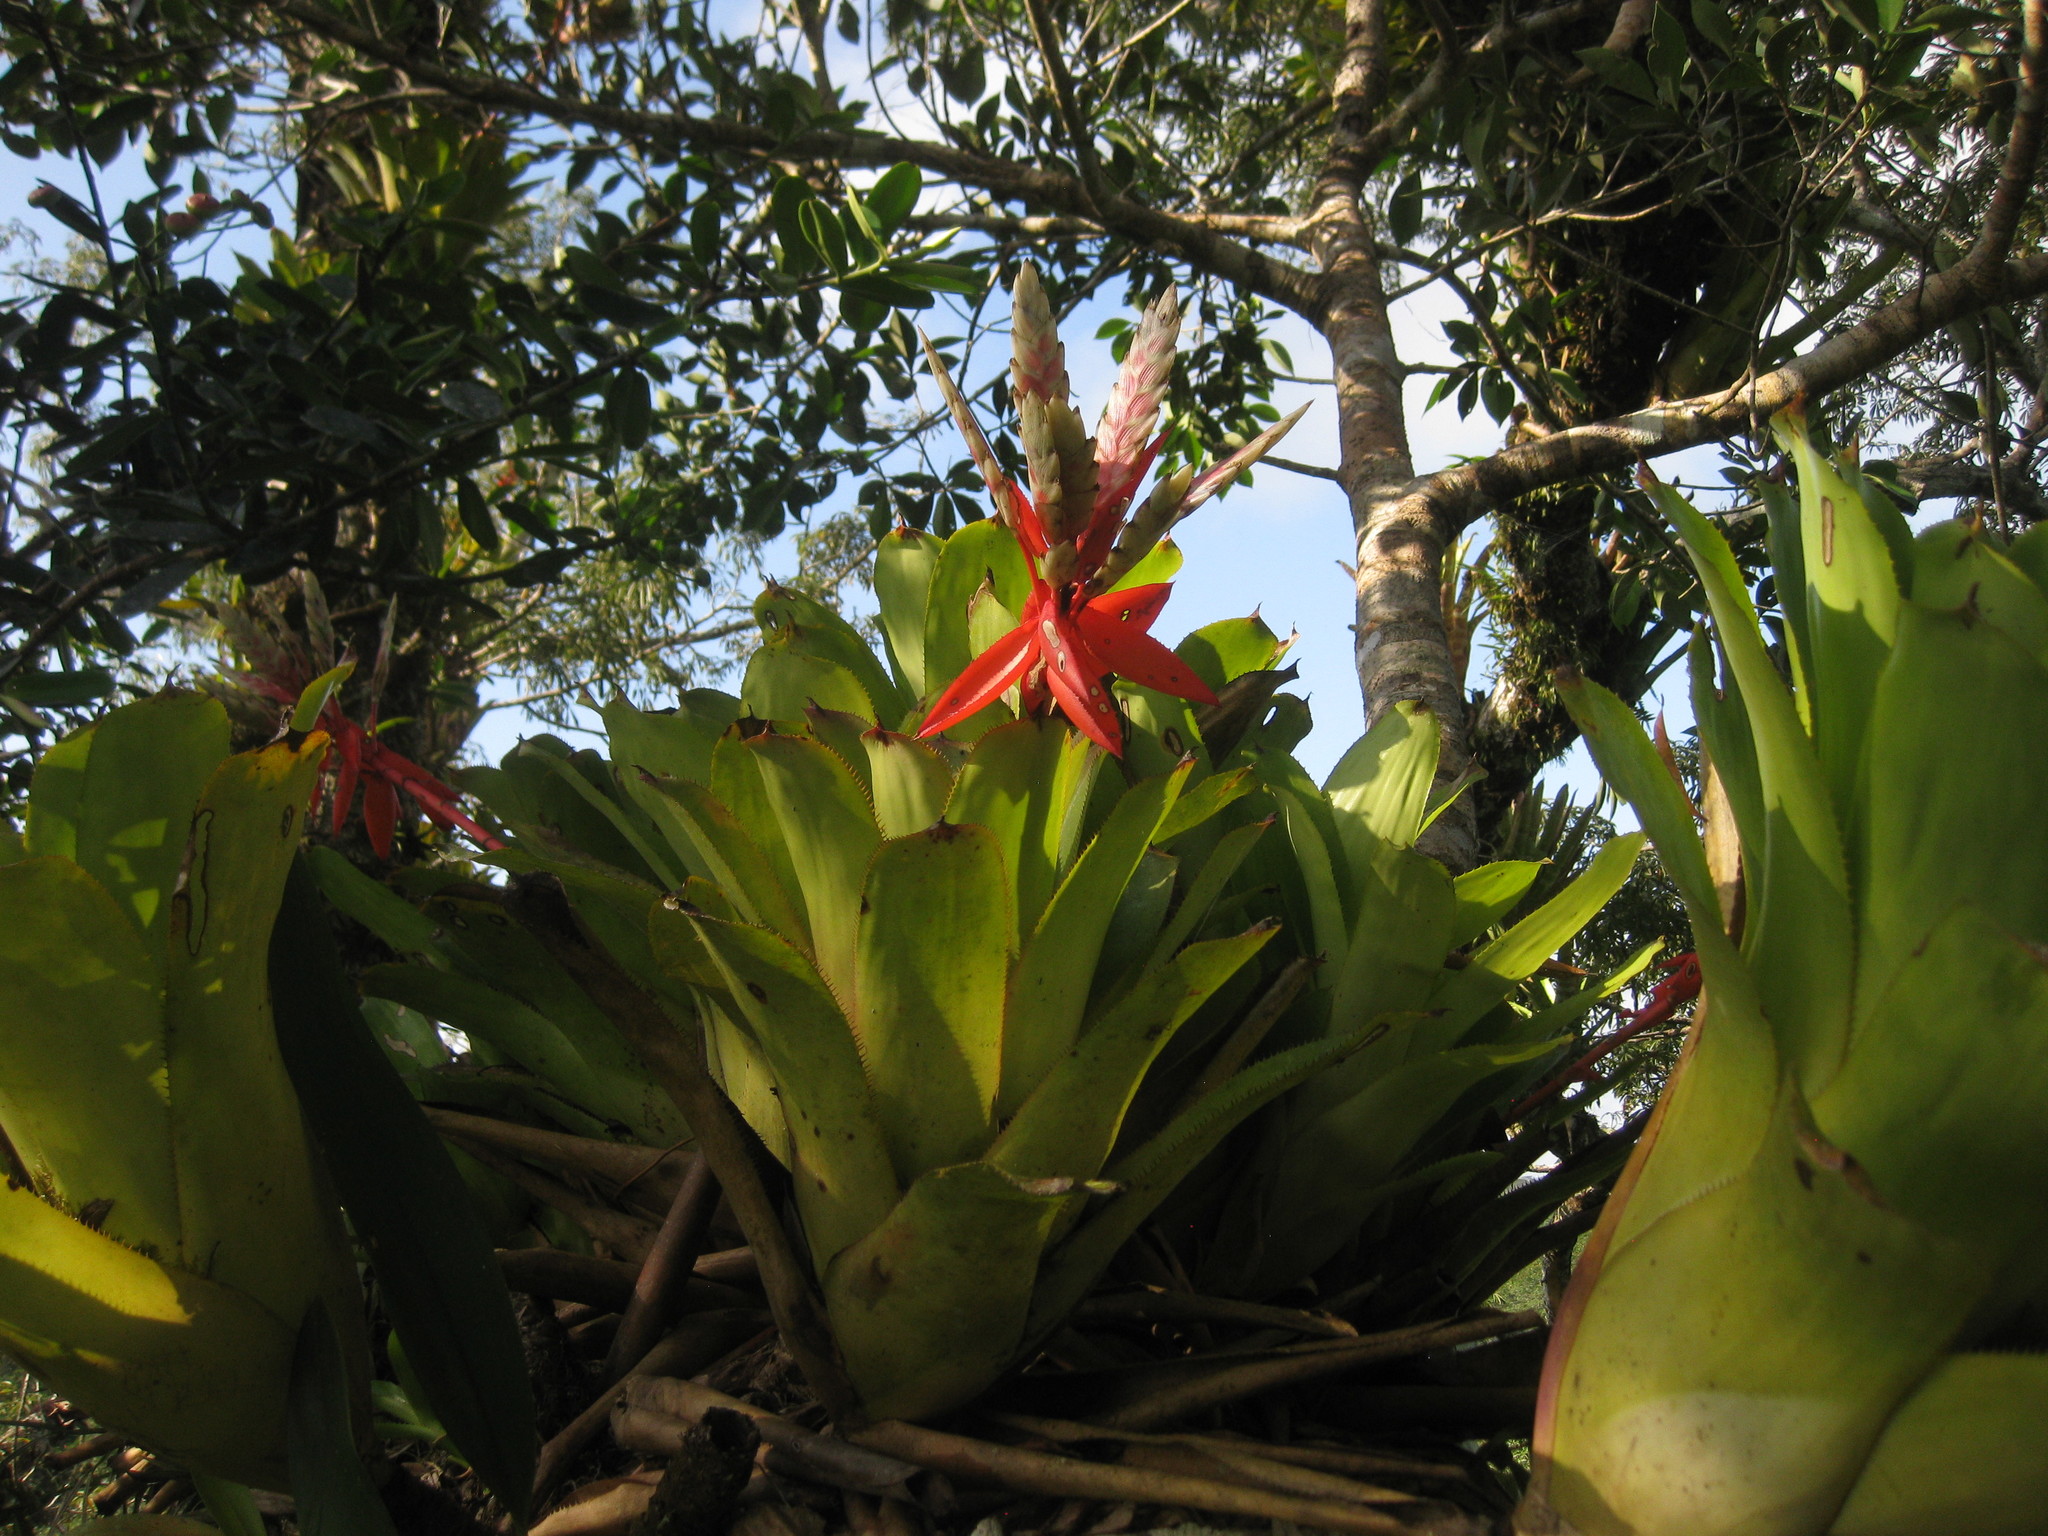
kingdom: Plantae
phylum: Tracheophyta
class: Liliopsida
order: Poales
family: Bromeliaceae
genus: Aechmea
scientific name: Aechmea romeroi
